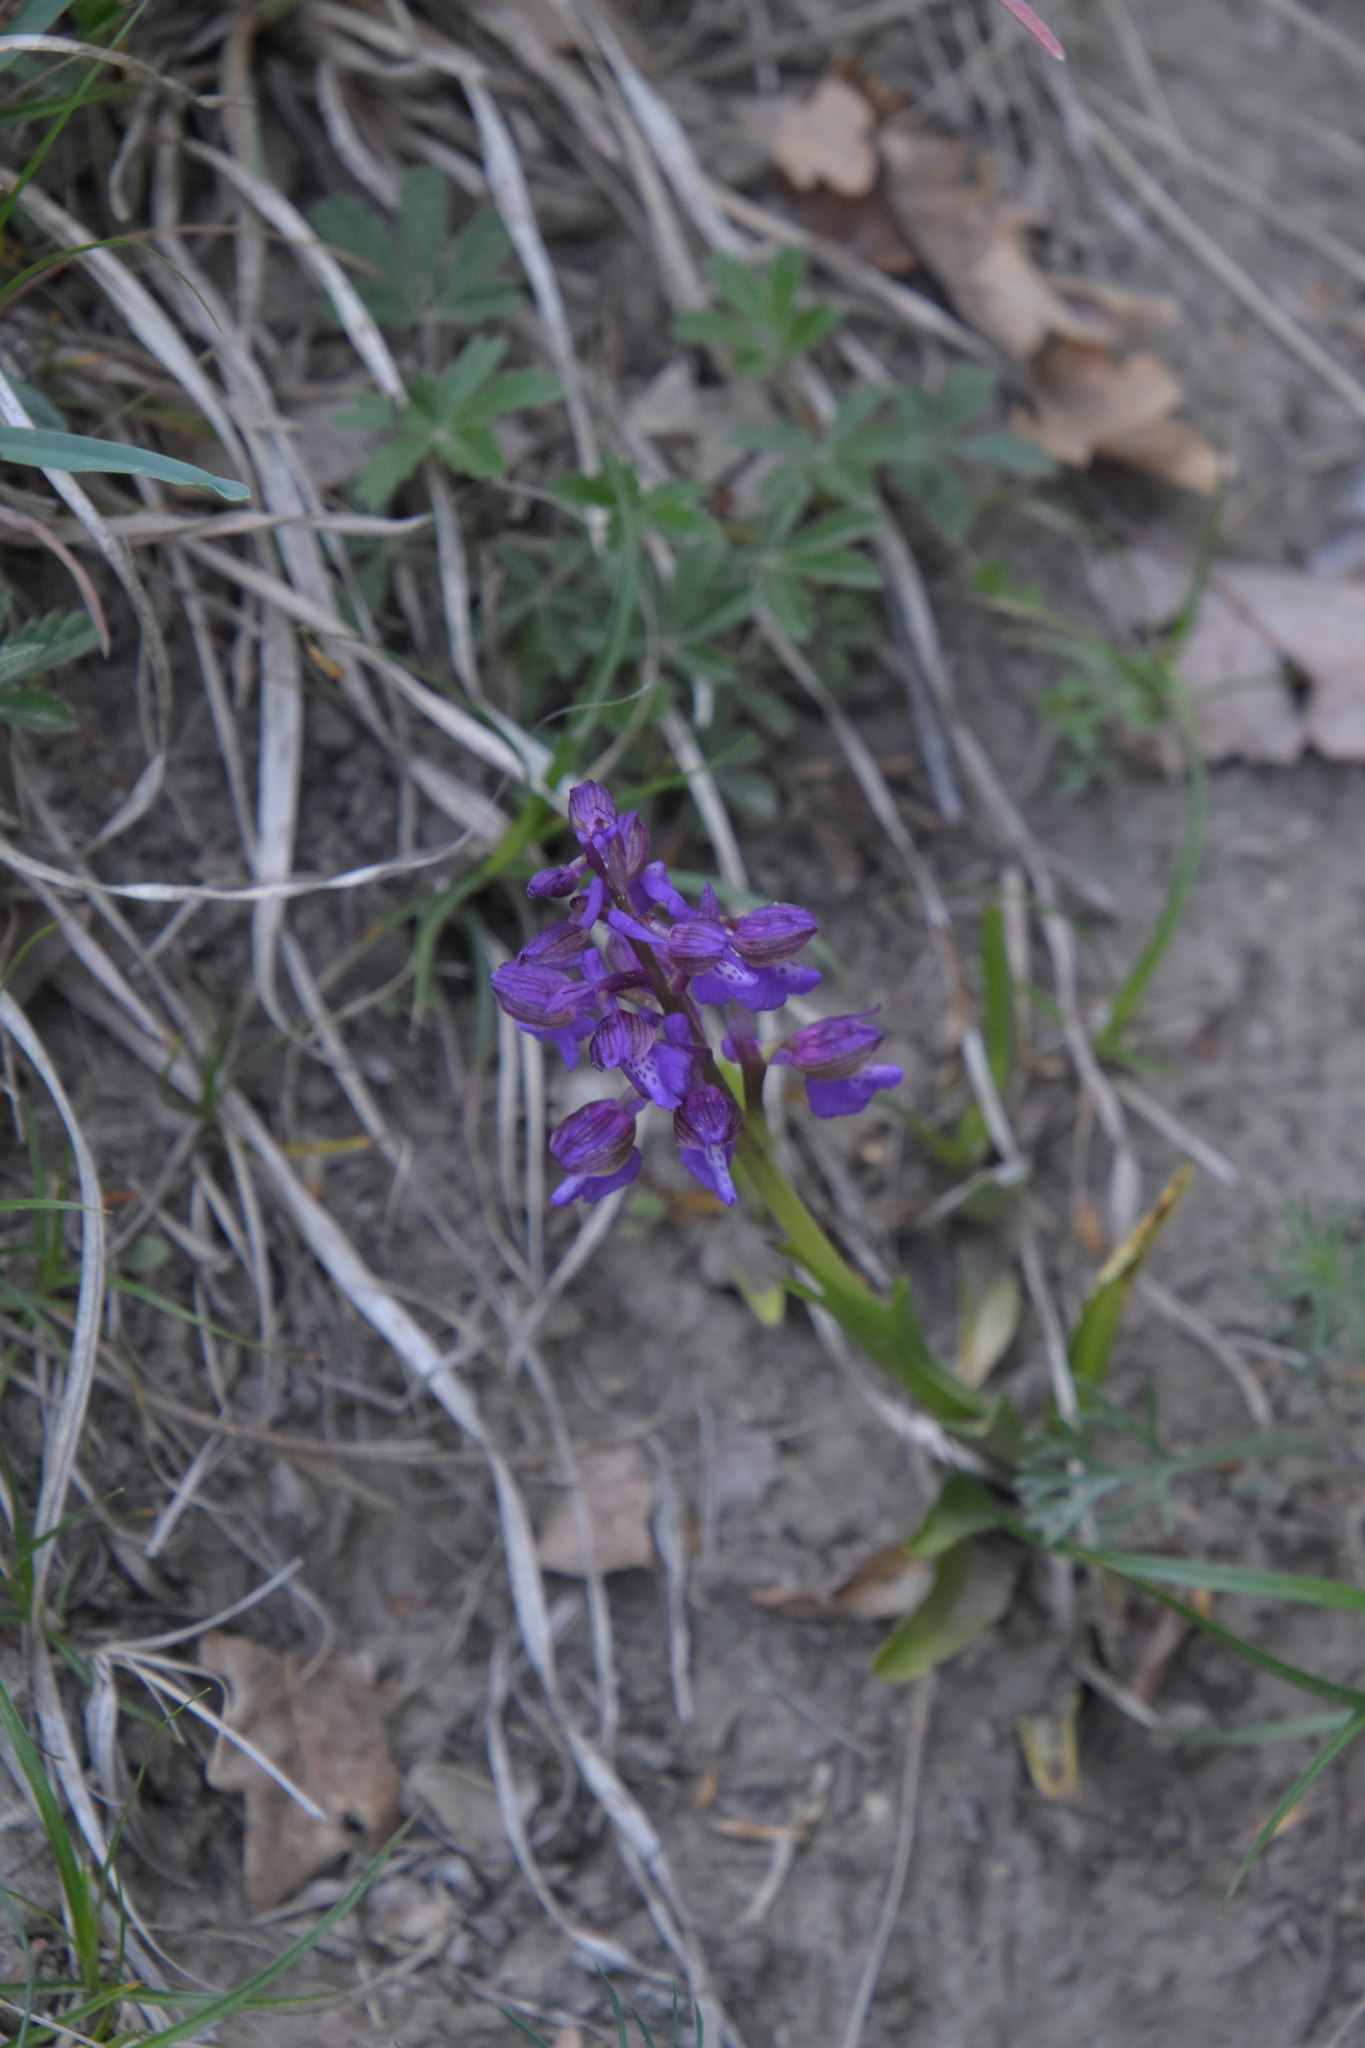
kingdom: Plantae
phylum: Tracheophyta
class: Liliopsida
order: Asparagales
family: Orchidaceae
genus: Anacamptis
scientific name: Anacamptis morio
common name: Green-winged orchid
